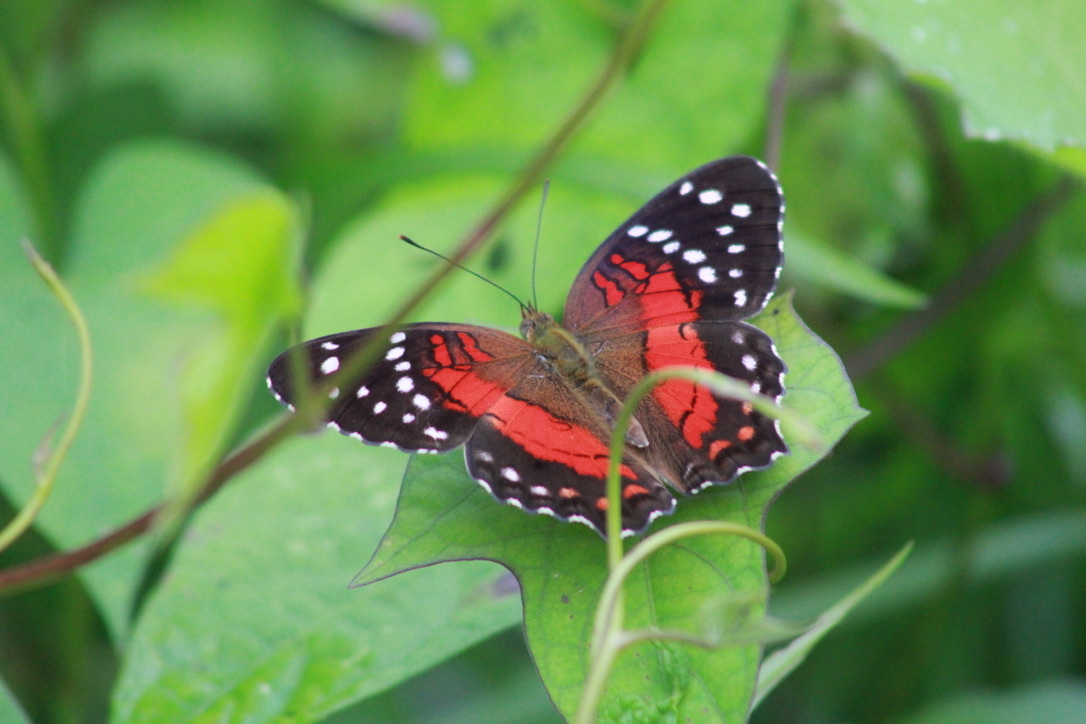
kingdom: Animalia
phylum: Arthropoda
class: Insecta
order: Lepidoptera
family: Nymphalidae
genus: Anartia
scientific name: Anartia amathea
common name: Red peacock
